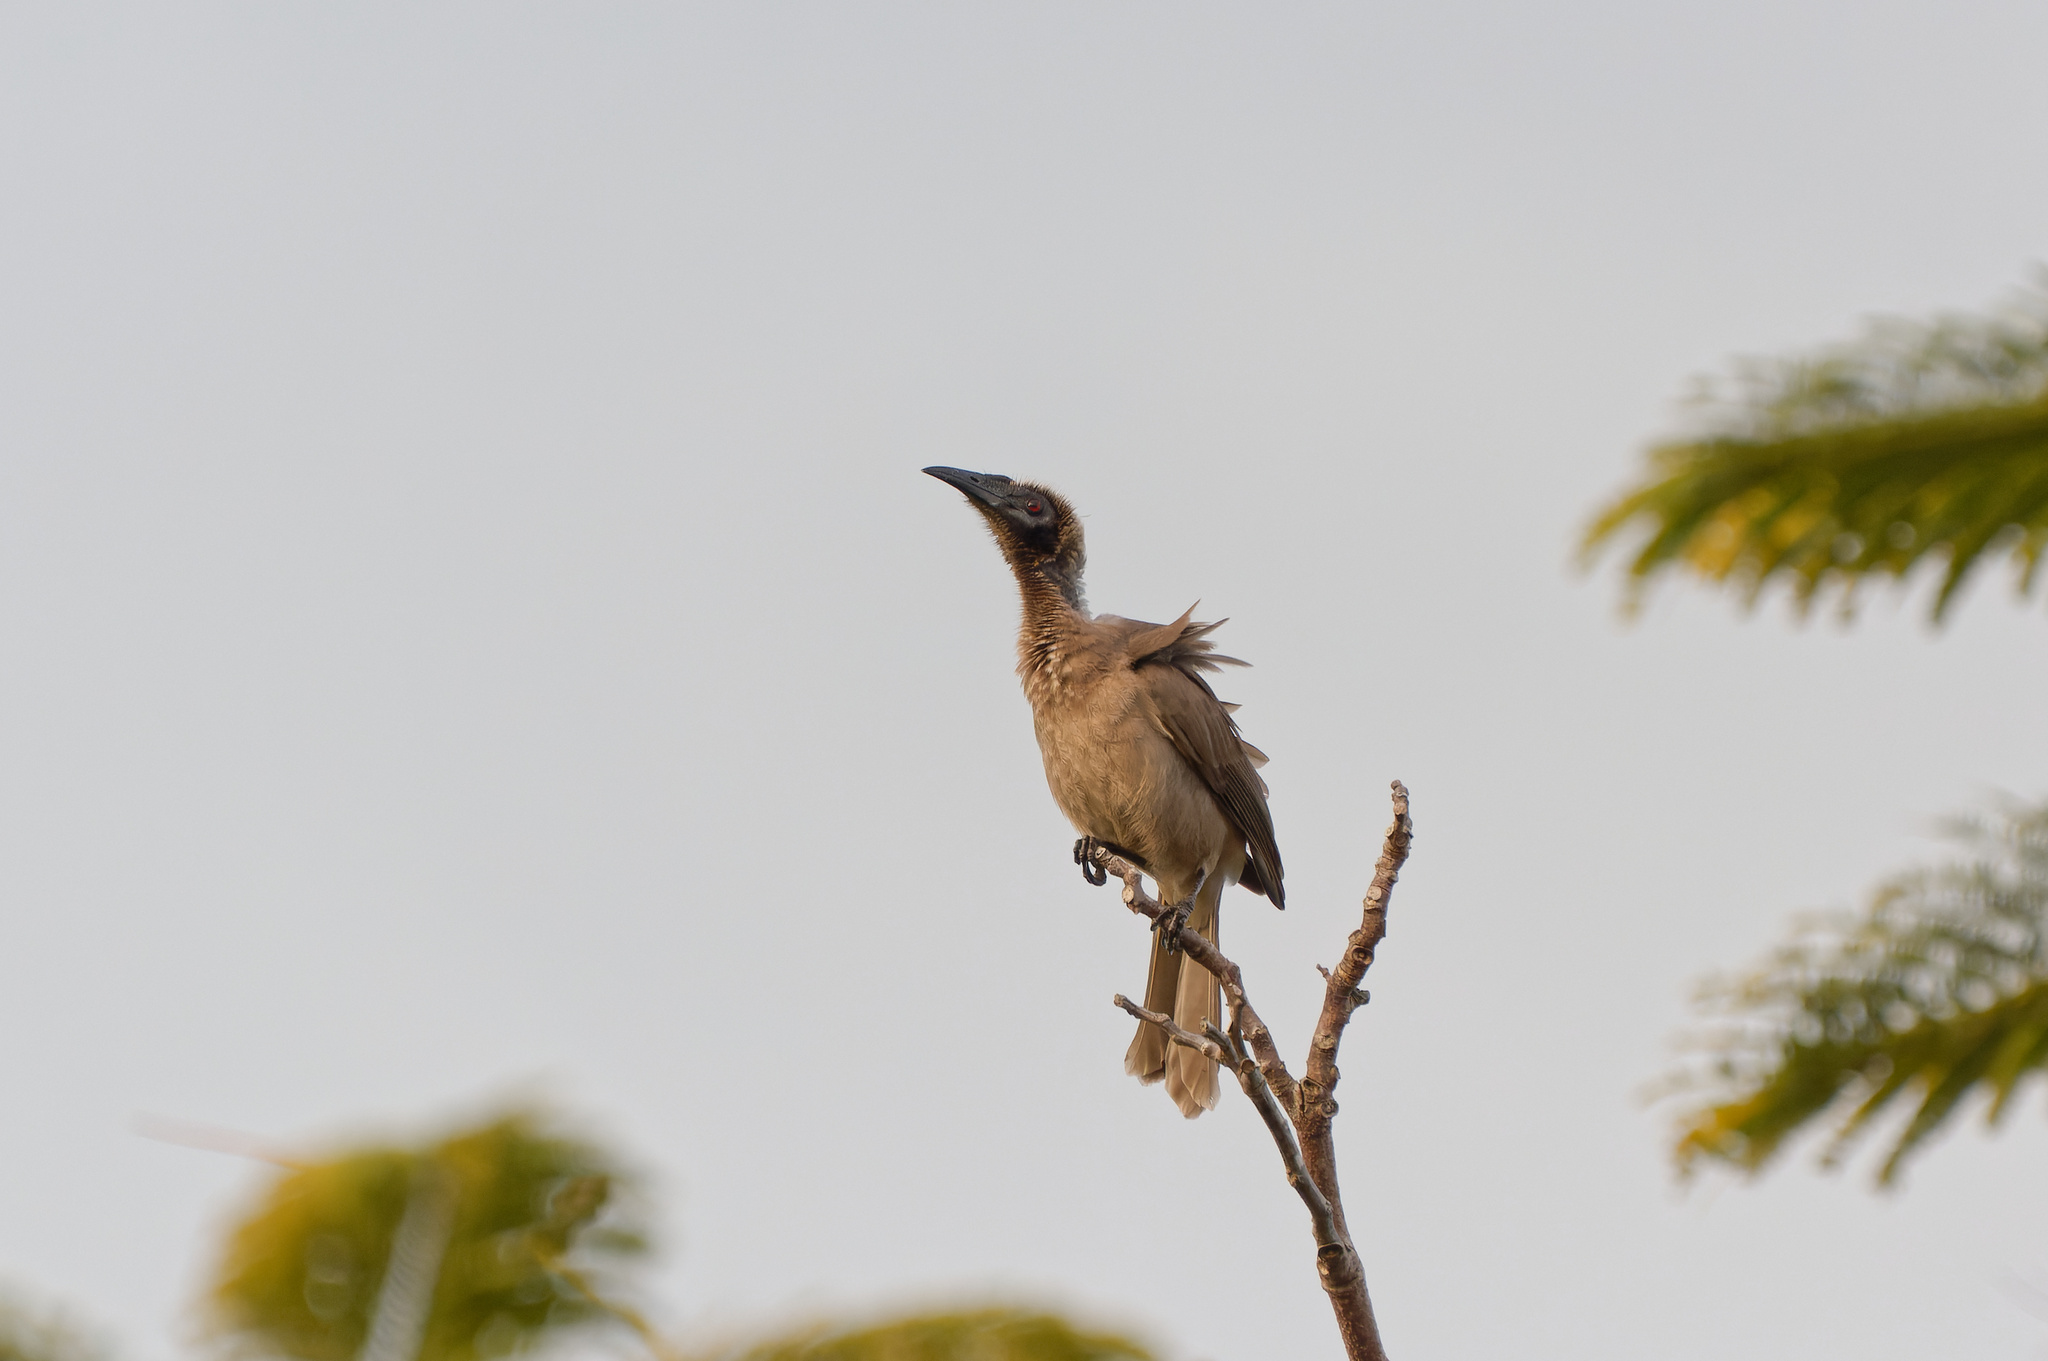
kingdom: Animalia
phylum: Chordata
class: Aves
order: Passeriformes
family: Meliphagidae
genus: Philemon
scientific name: Philemon buceroides
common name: Helmeted friarbird
